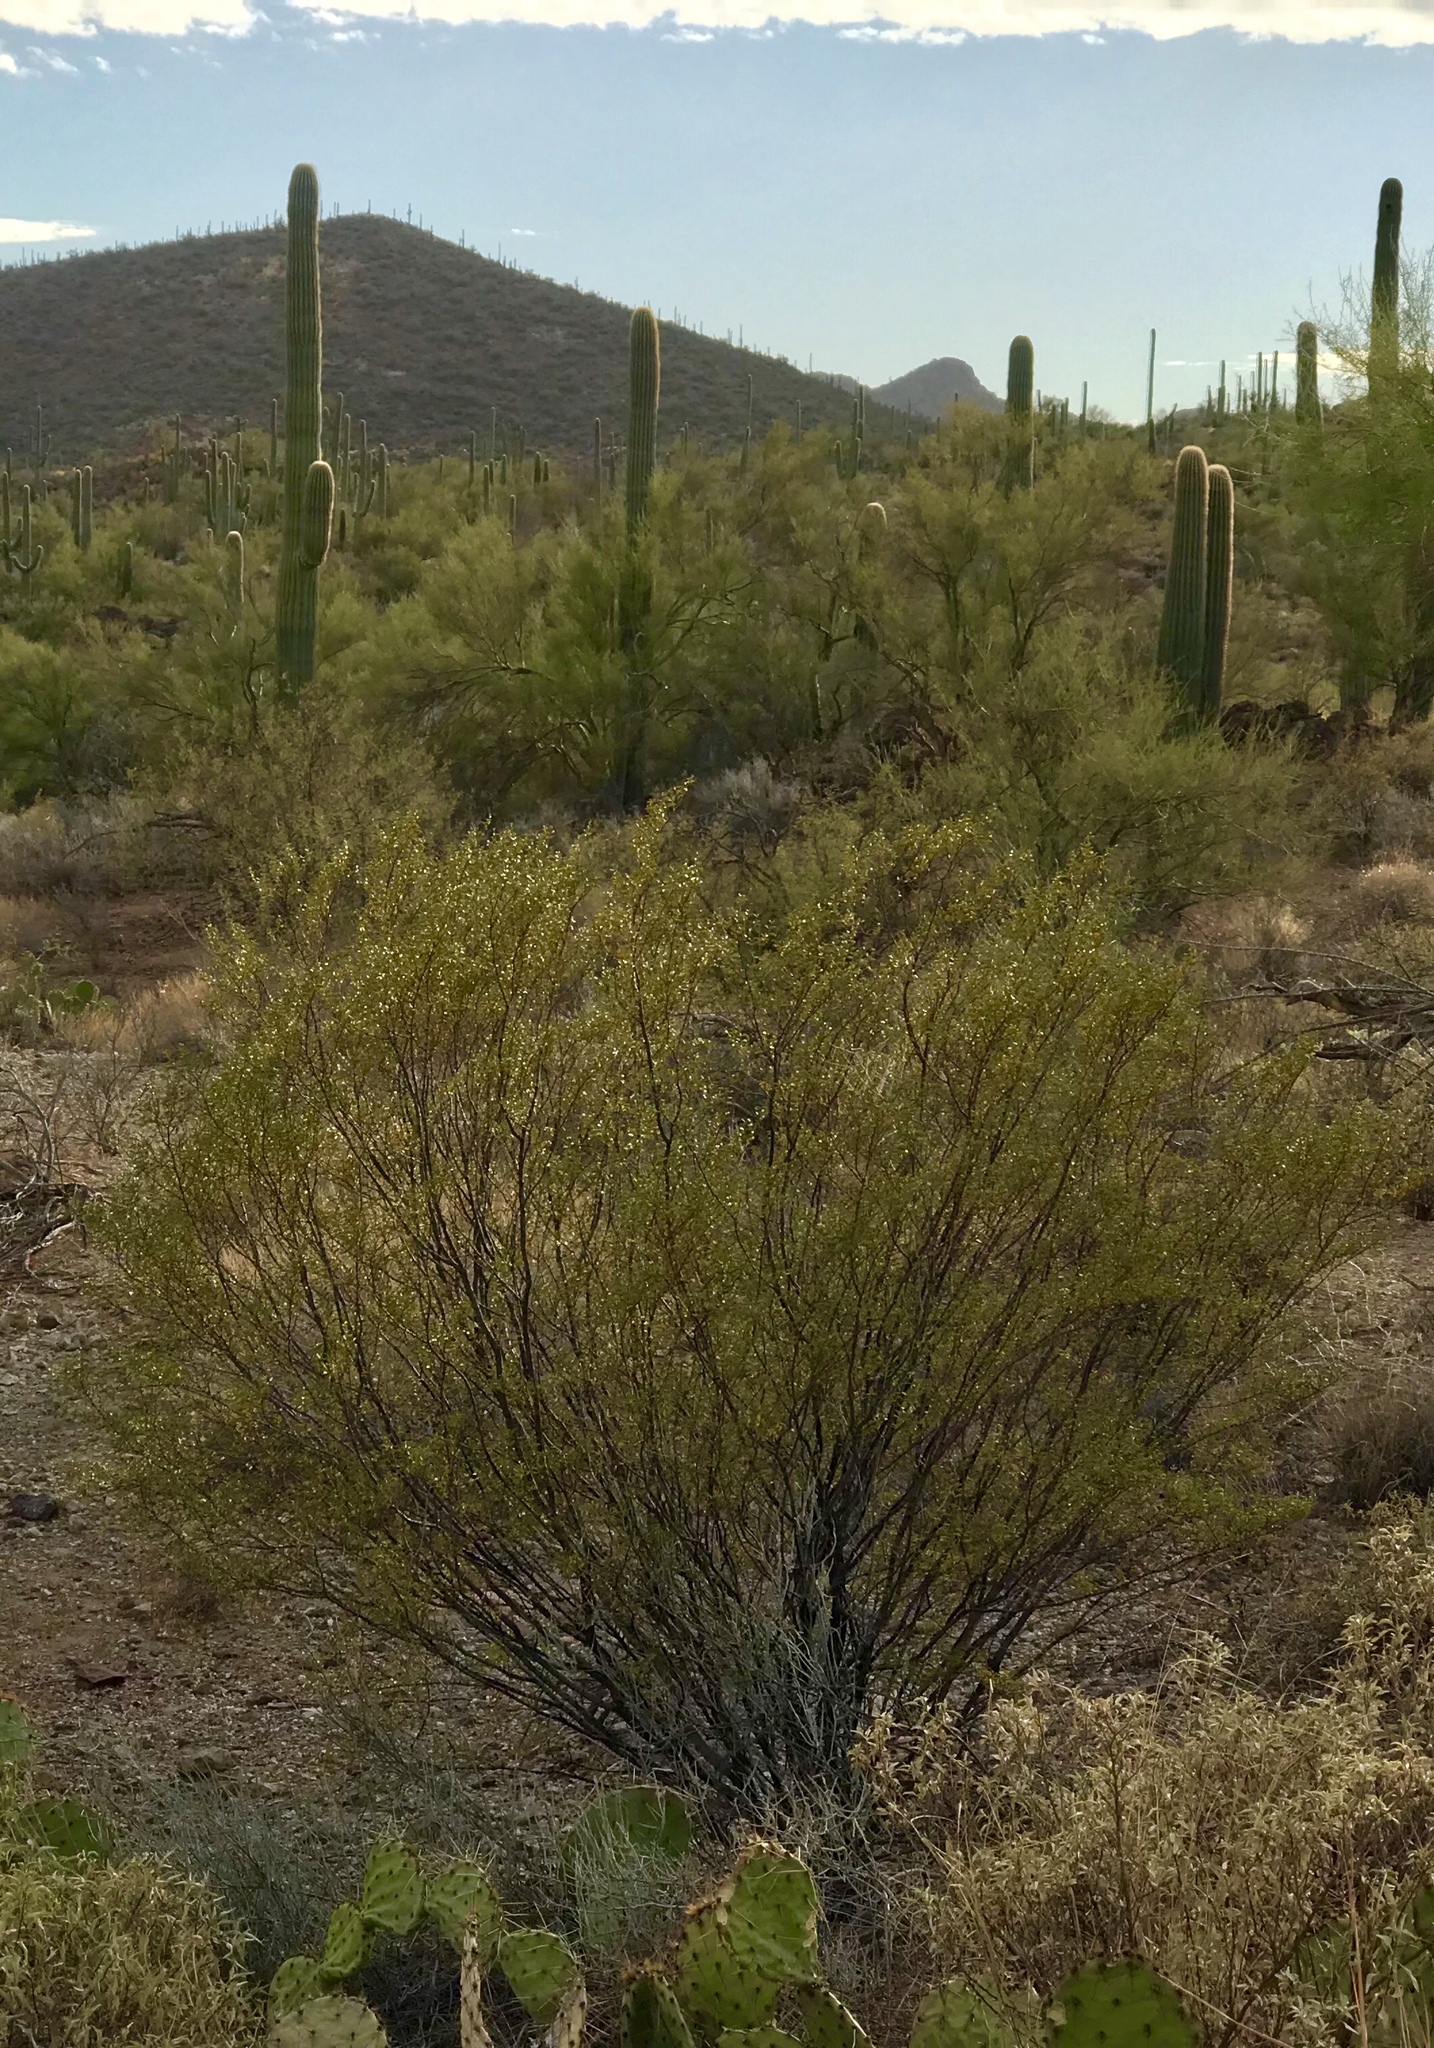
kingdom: Plantae
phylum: Tracheophyta
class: Magnoliopsida
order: Zygophyllales
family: Zygophyllaceae
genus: Larrea
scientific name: Larrea tridentata
